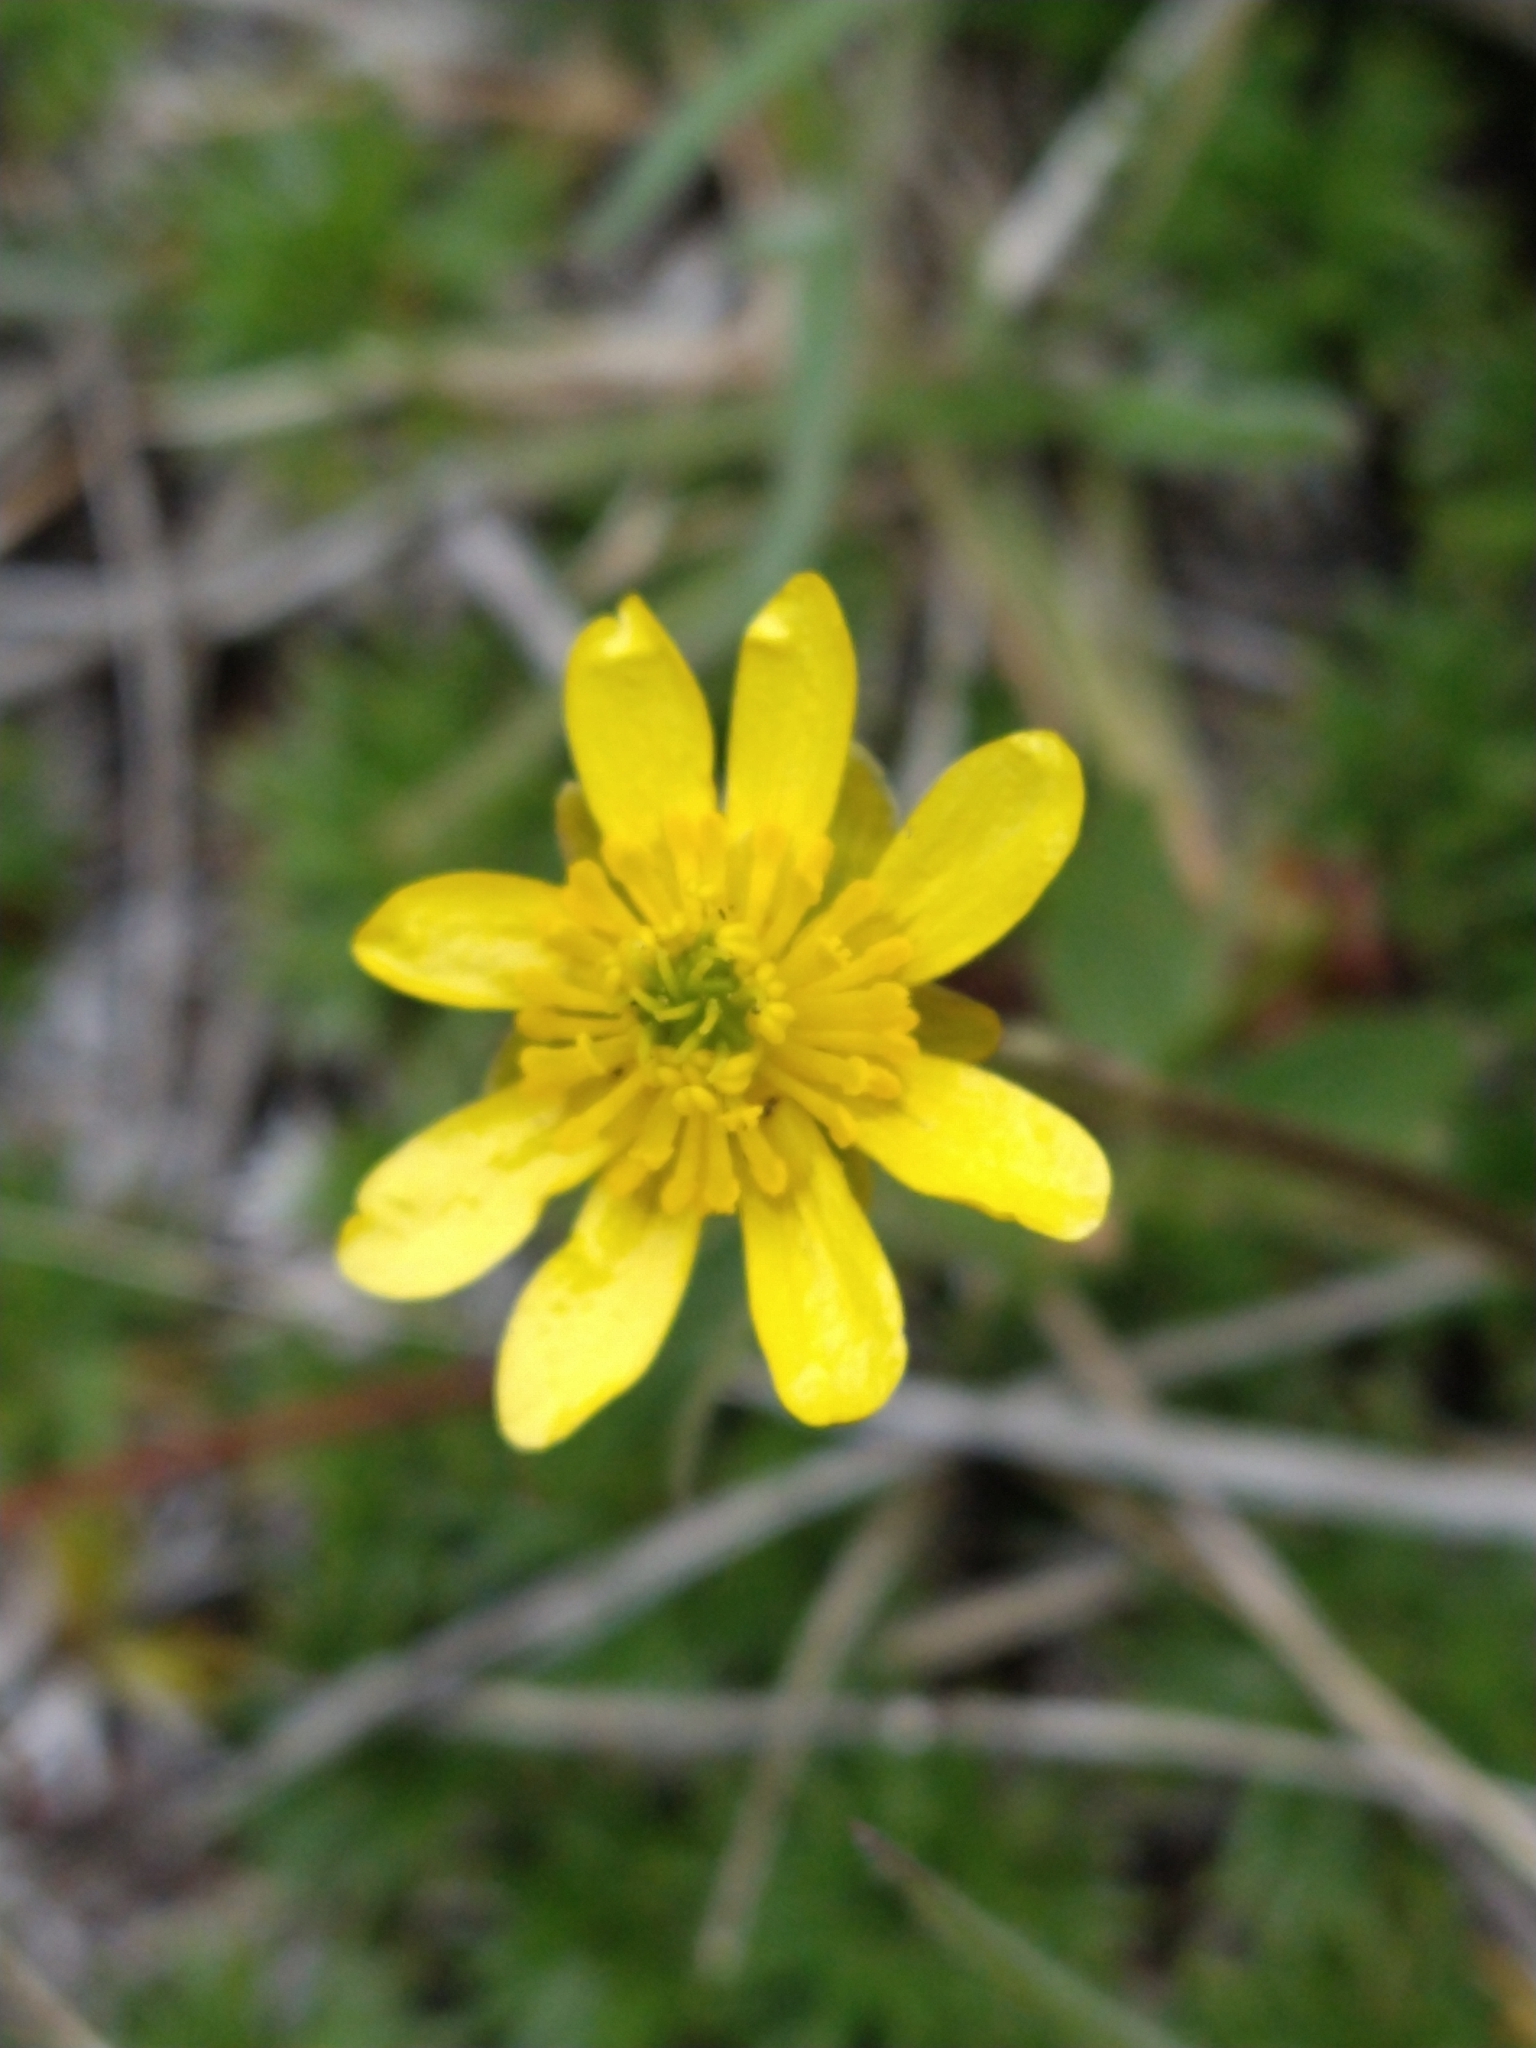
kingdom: Plantae
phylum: Tracheophyta
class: Magnoliopsida
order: Ranunculales
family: Ranunculaceae
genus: Ranunculus
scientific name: Ranunculus peduncularis
